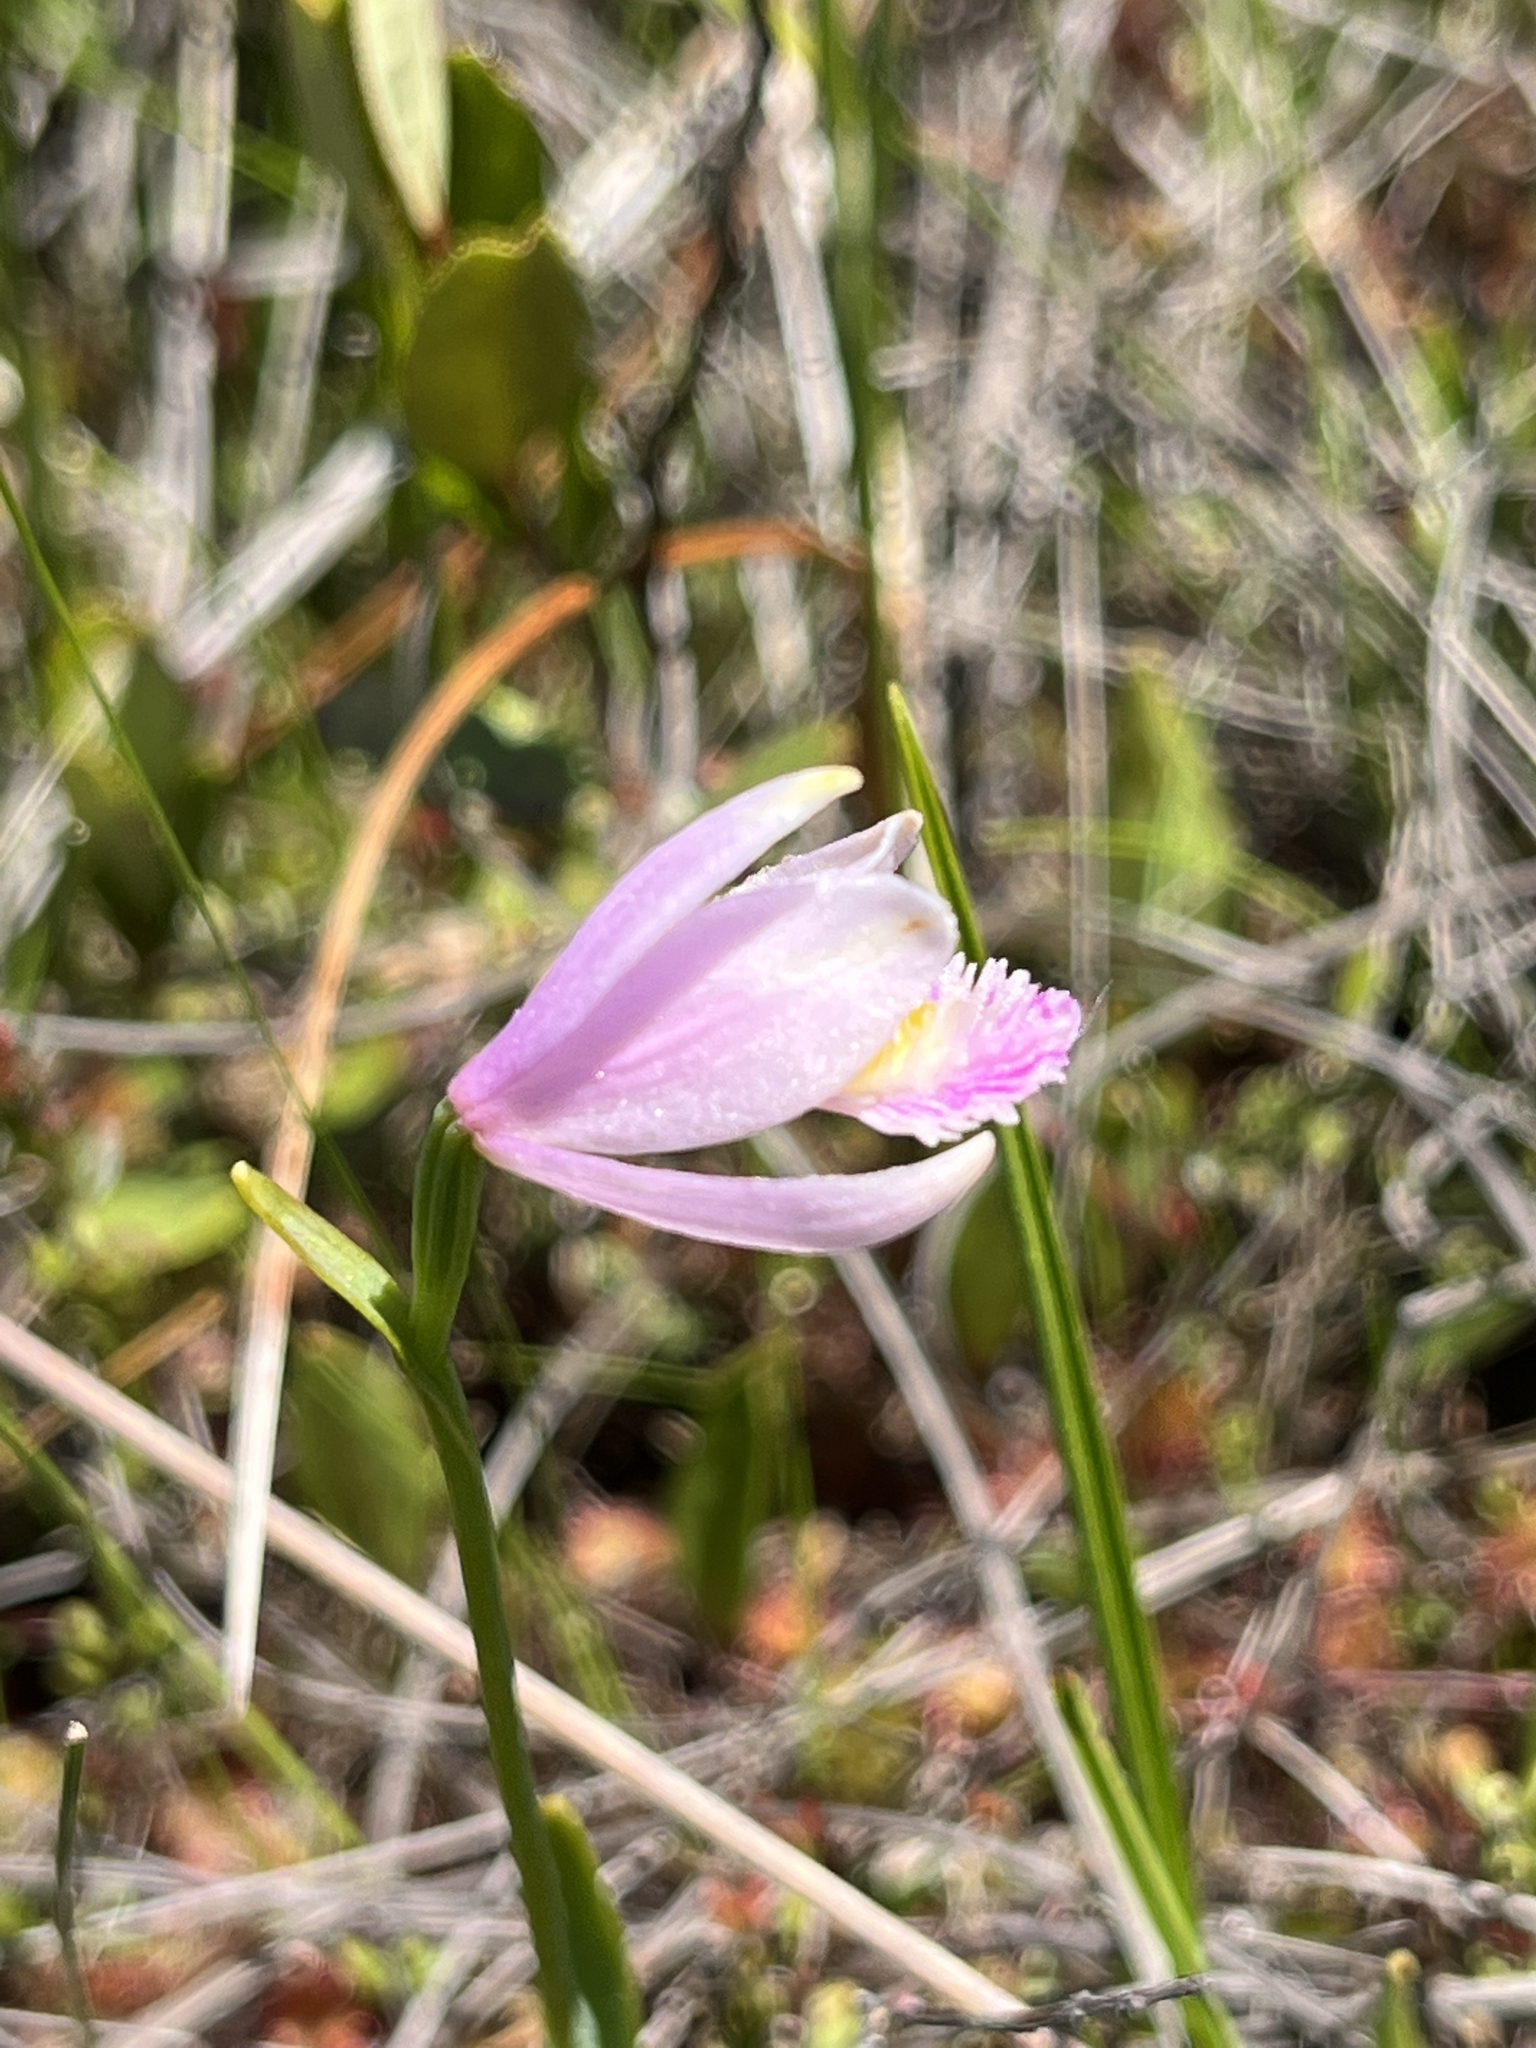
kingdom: Plantae
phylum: Tracheophyta
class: Liliopsida
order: Asparagales
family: Orchidaceae
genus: Pogonia
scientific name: Pogonia ophioglossoides
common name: Rose pogonia
